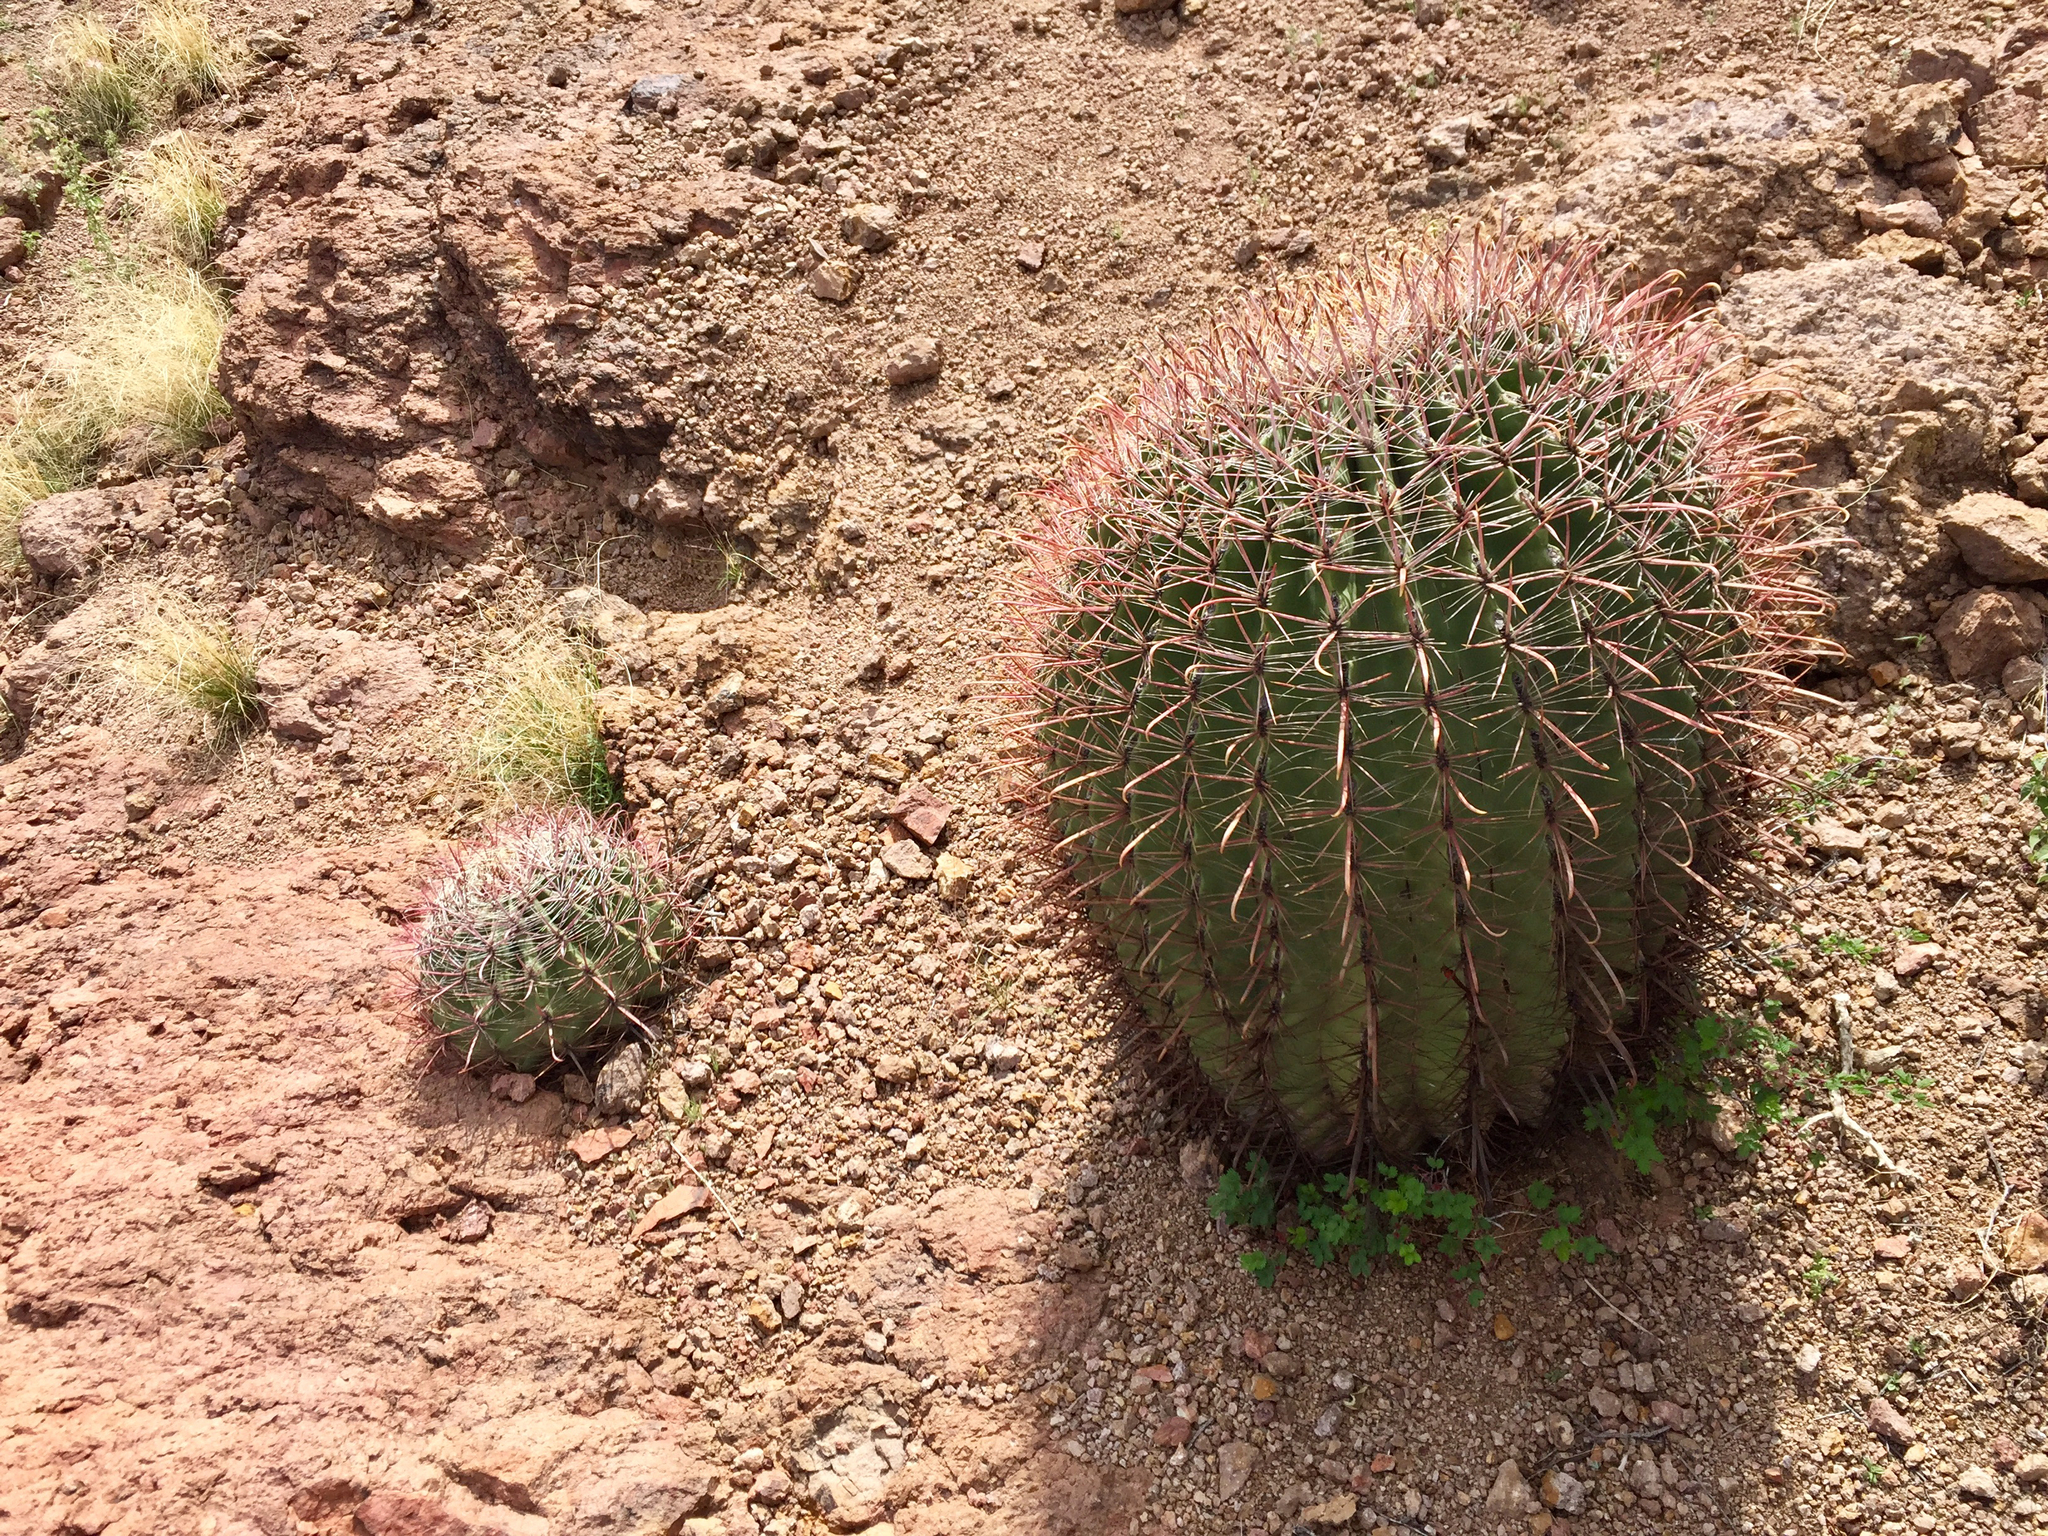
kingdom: Plantae
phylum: Tracheophyta
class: Magnoliopsida
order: Caryophyllales
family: Cactaceae
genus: Ferocactus
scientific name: Ferocactus wislizeni
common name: Candy barrel cactus
